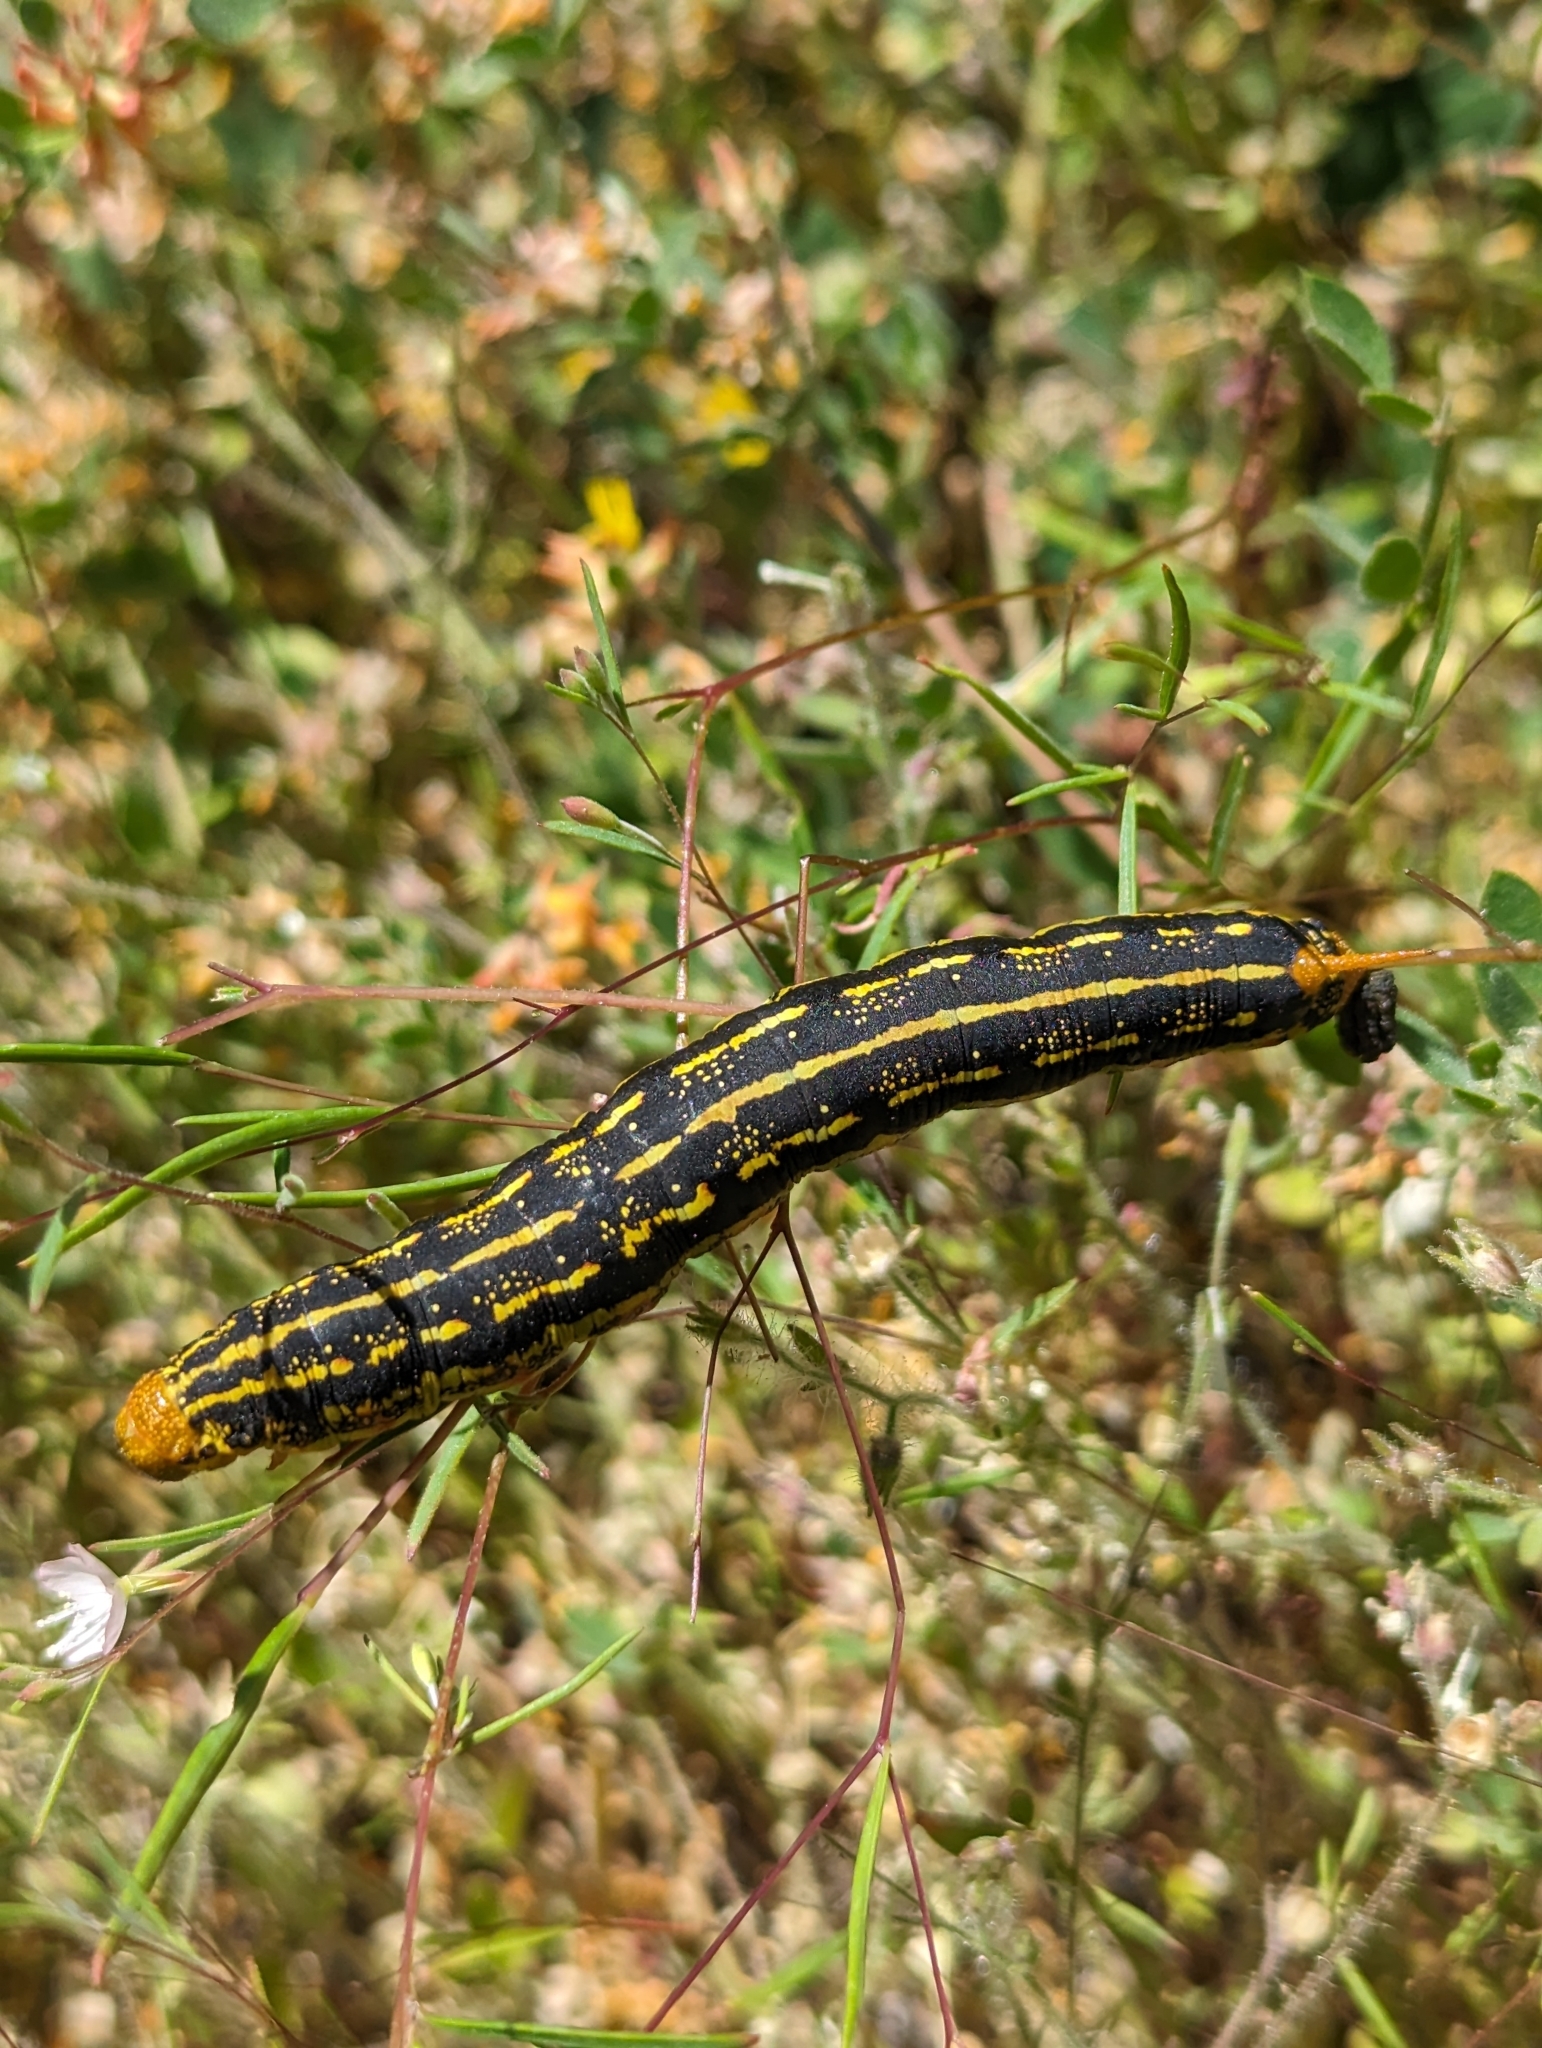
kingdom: Animalia
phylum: Arthropoda
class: Insecta
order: Lepidoptera
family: Sphingidae
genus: Hyles
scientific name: Hyles lineata
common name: White-lined sphinx
